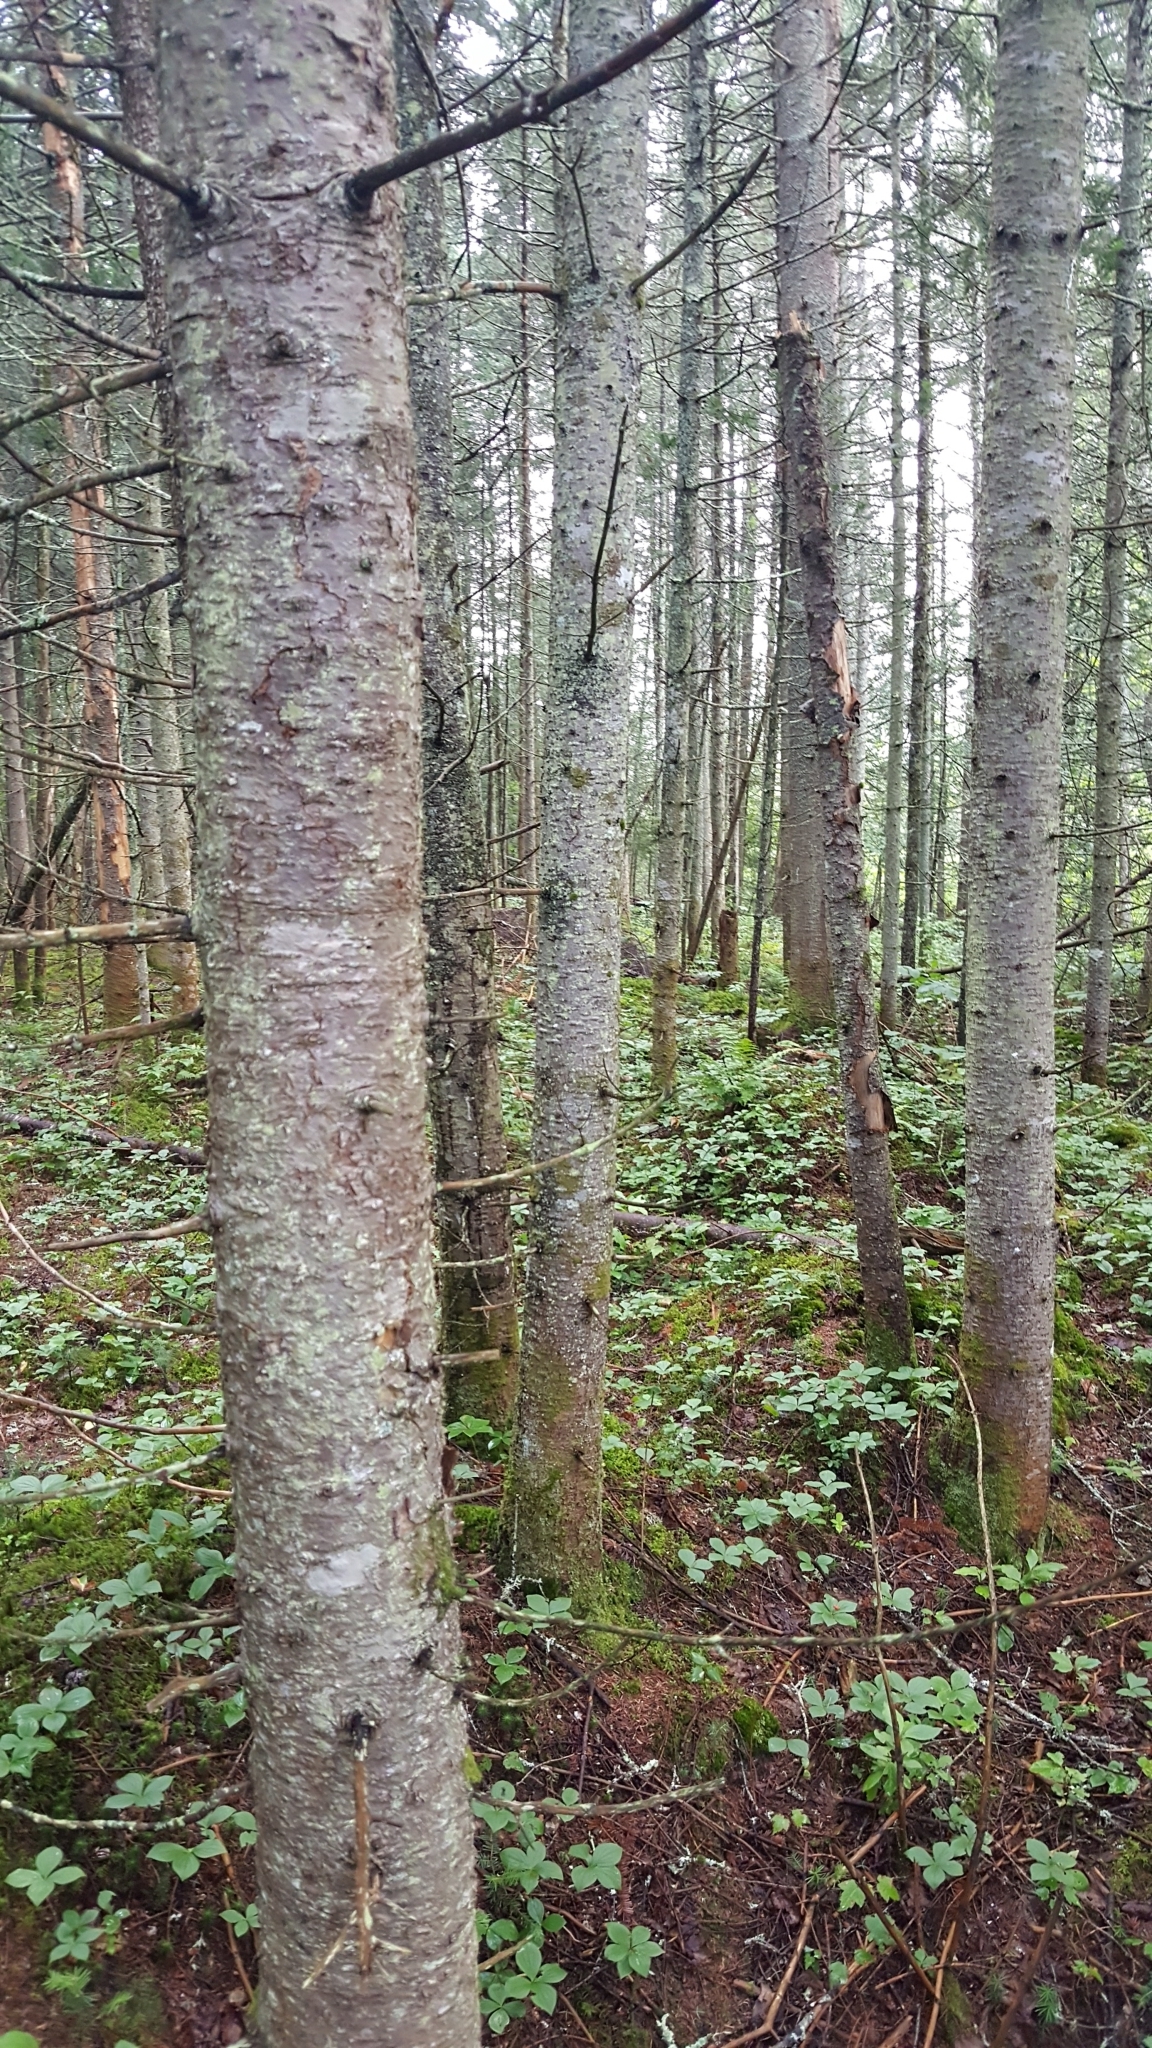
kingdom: Plantae
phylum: Tracheophyta
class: Pinopsida
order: Pinales
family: Pinaceae
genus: Abies
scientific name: Abies balsamea
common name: Balsam fir
